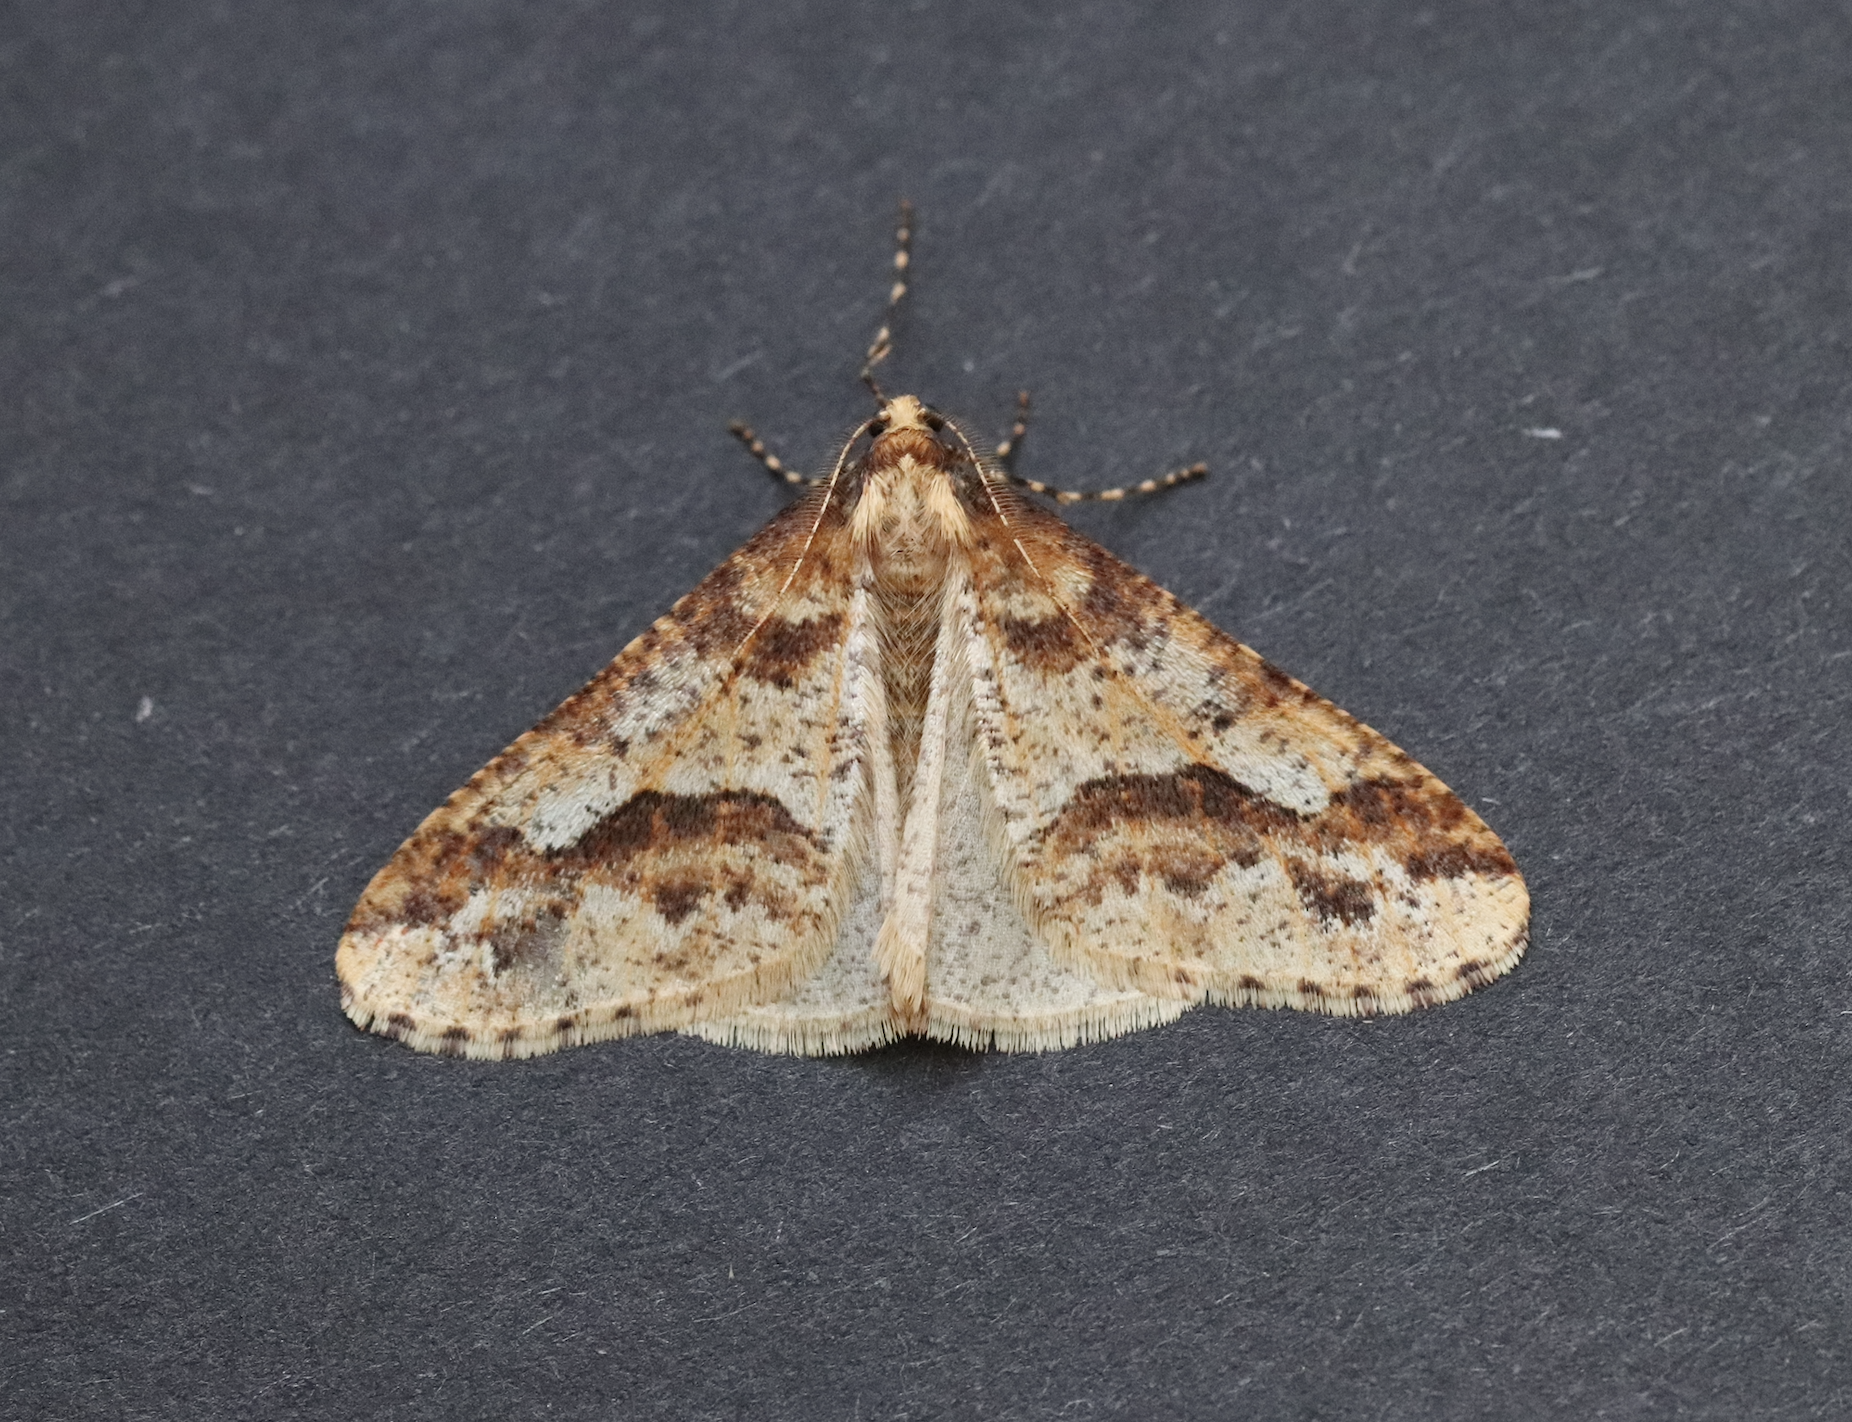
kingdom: Animalia
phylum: Arthropoda
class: Insecta
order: Lepidoptera
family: Geometridae
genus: Erannis
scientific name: Erannis defoliaria
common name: Mottled umber
